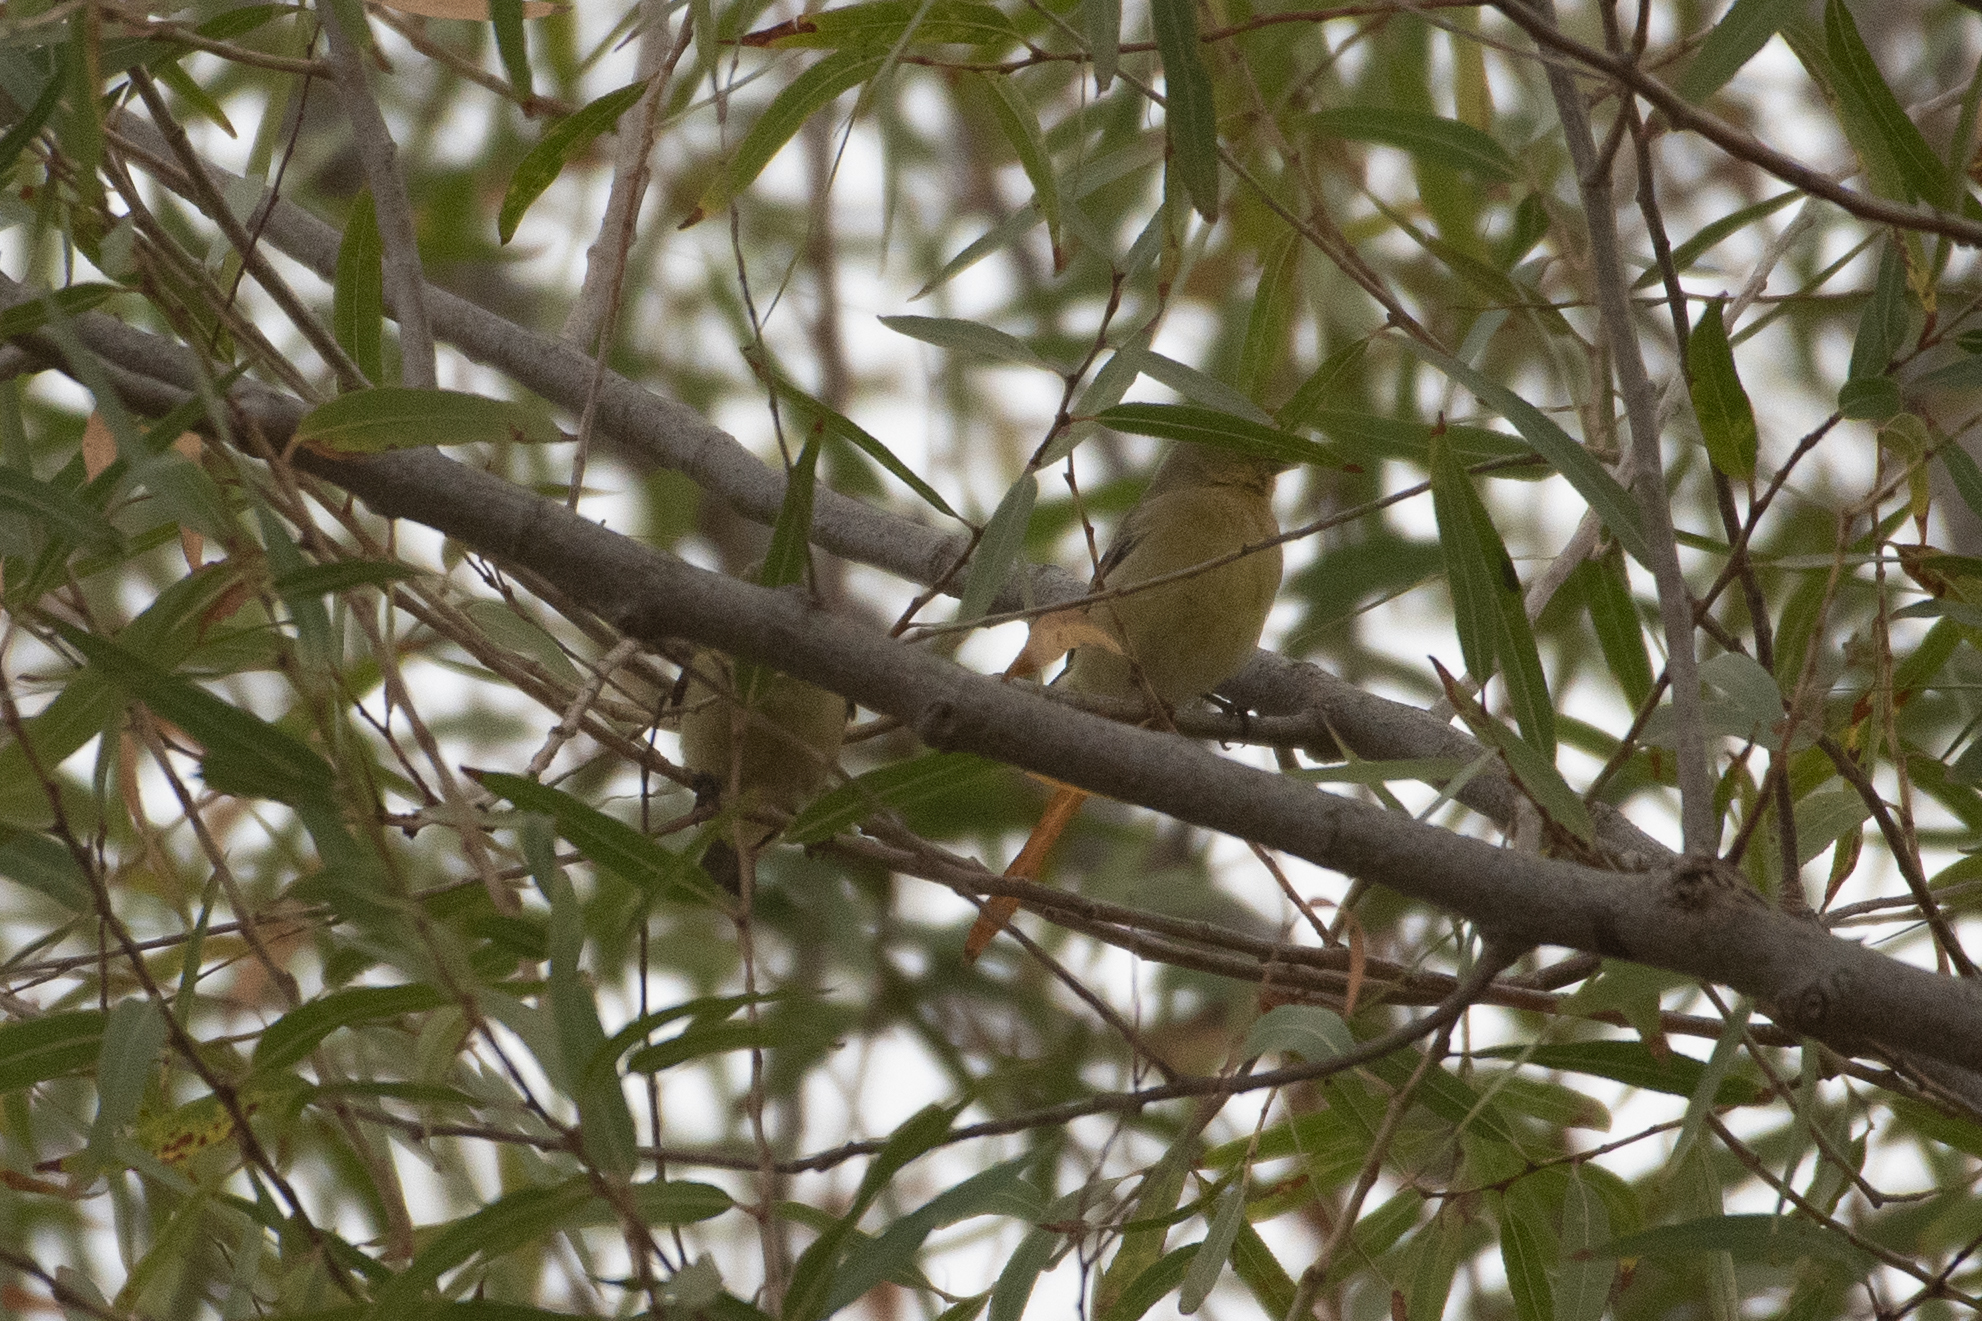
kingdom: Animalia
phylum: Chordata
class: Aves
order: Passeriformes
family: Fringillidae
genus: Spinus
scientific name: Spinus psaltria
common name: Lesser goldfinch
